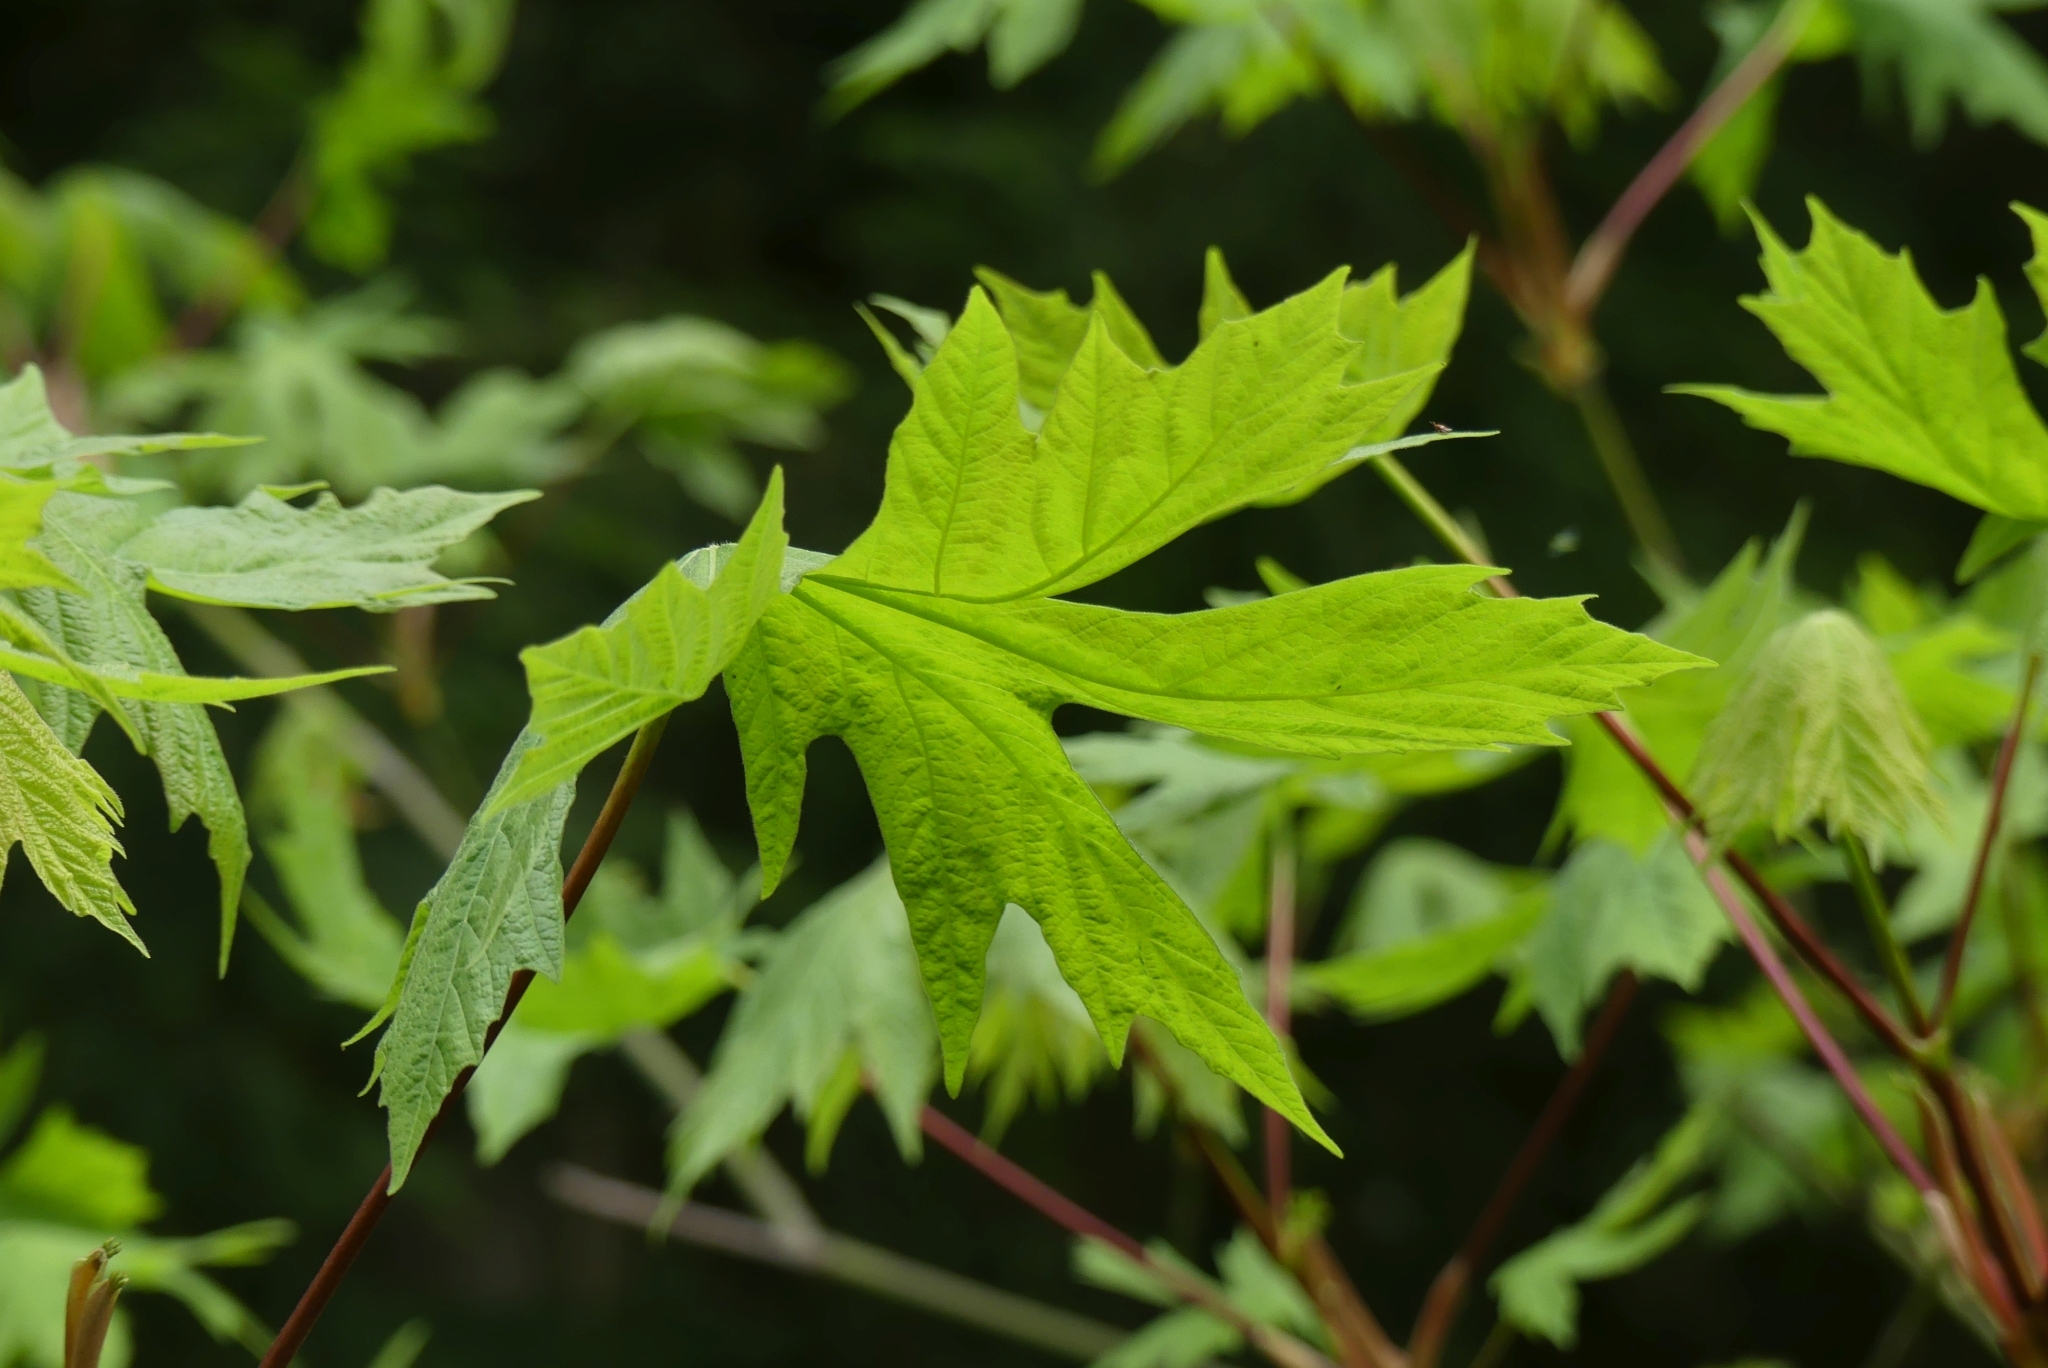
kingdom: Plantae
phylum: Tracheophyta
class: Magnoliopsida
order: Sapindales
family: Sapindaceae
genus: Acer
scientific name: Acer macrophyllum
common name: Oregon maple
